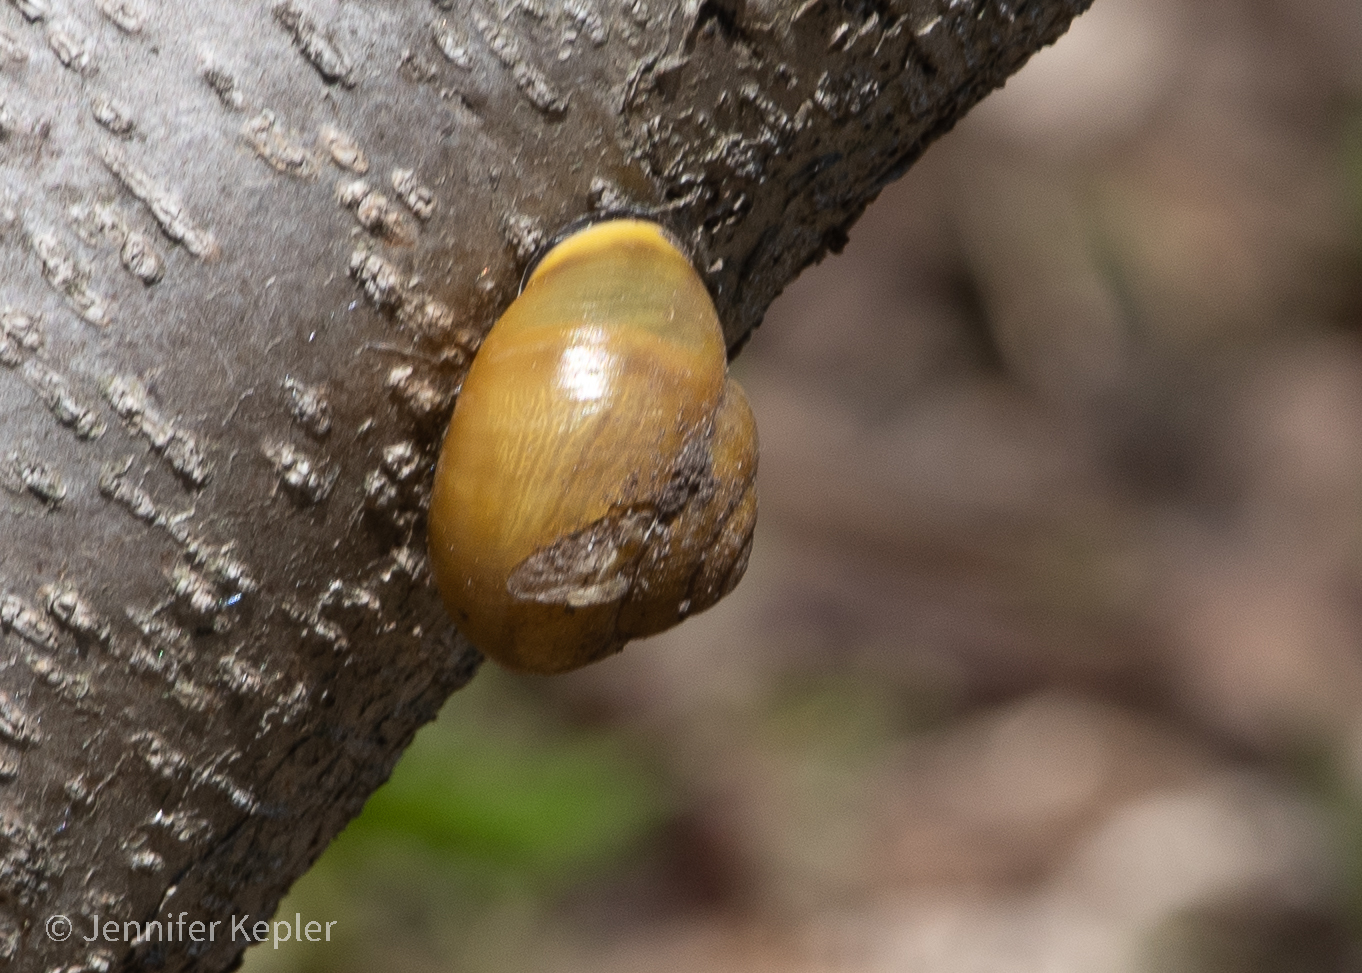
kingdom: Animalia
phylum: Mollusca
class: Gastropoda
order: Stylommatophora
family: Helicidae
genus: Cepaea
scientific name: Cepaea nemoralis
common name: Grovesnail
